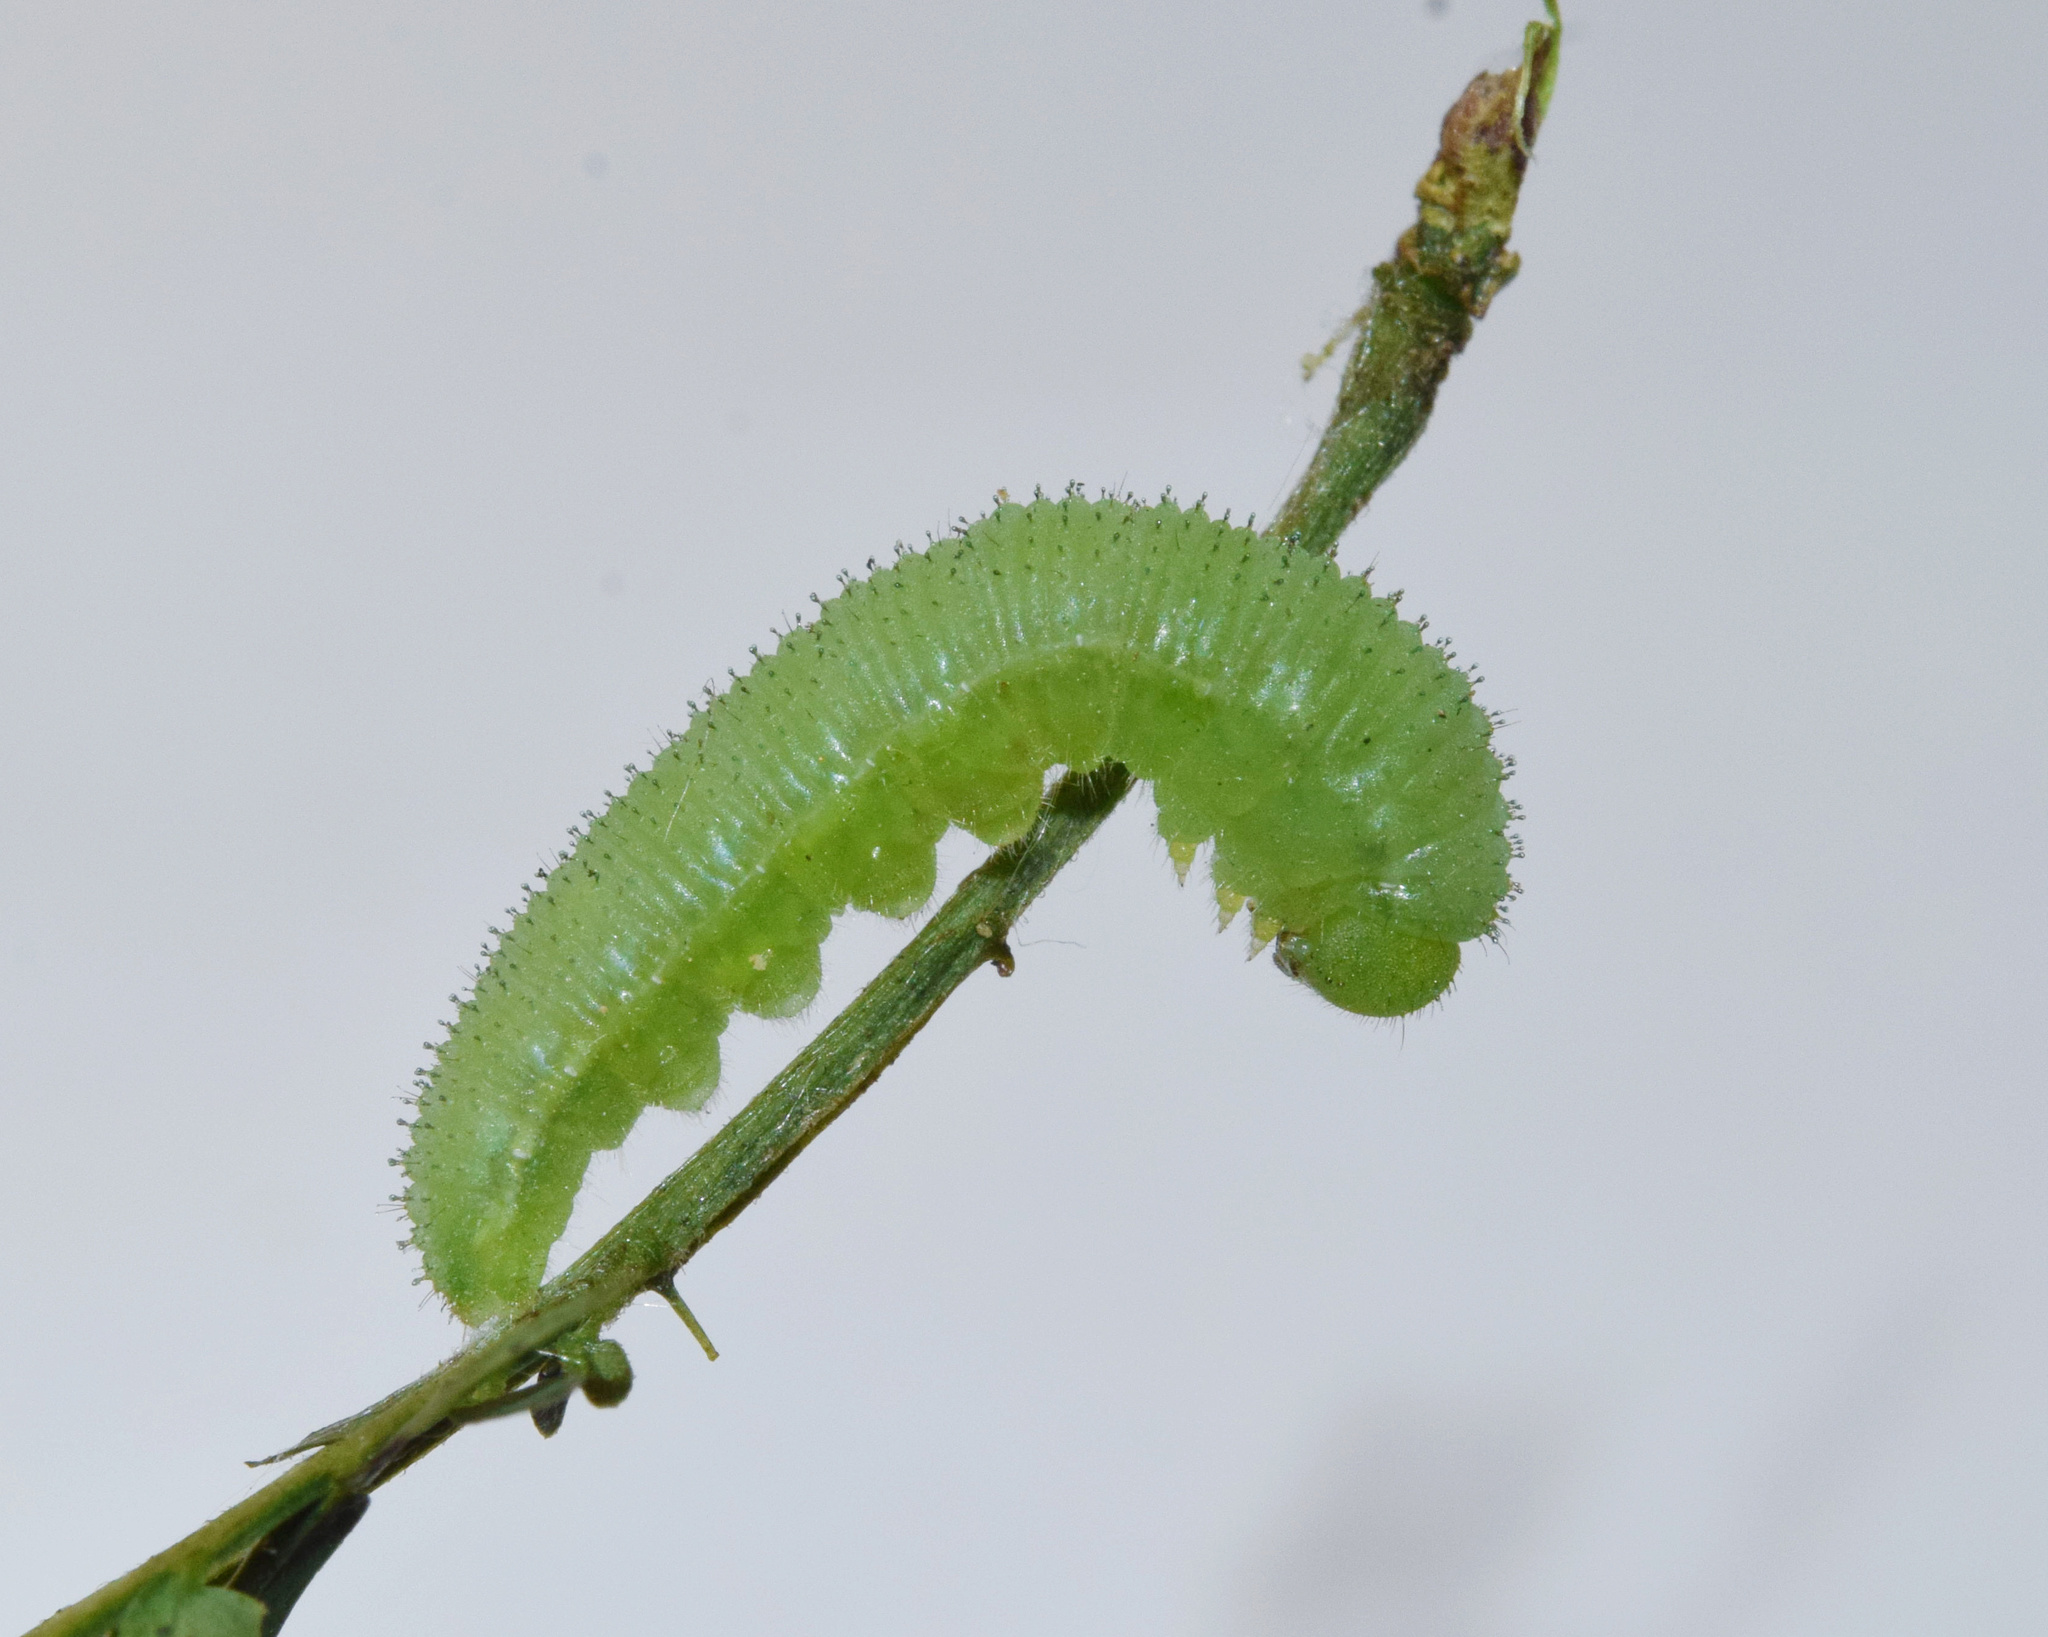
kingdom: Animalia
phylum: Arthropoda
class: Insecta
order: Lepidoptera
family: Pieridae
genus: Eurema
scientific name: Eurema floricola
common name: Malagasy grass yellow
